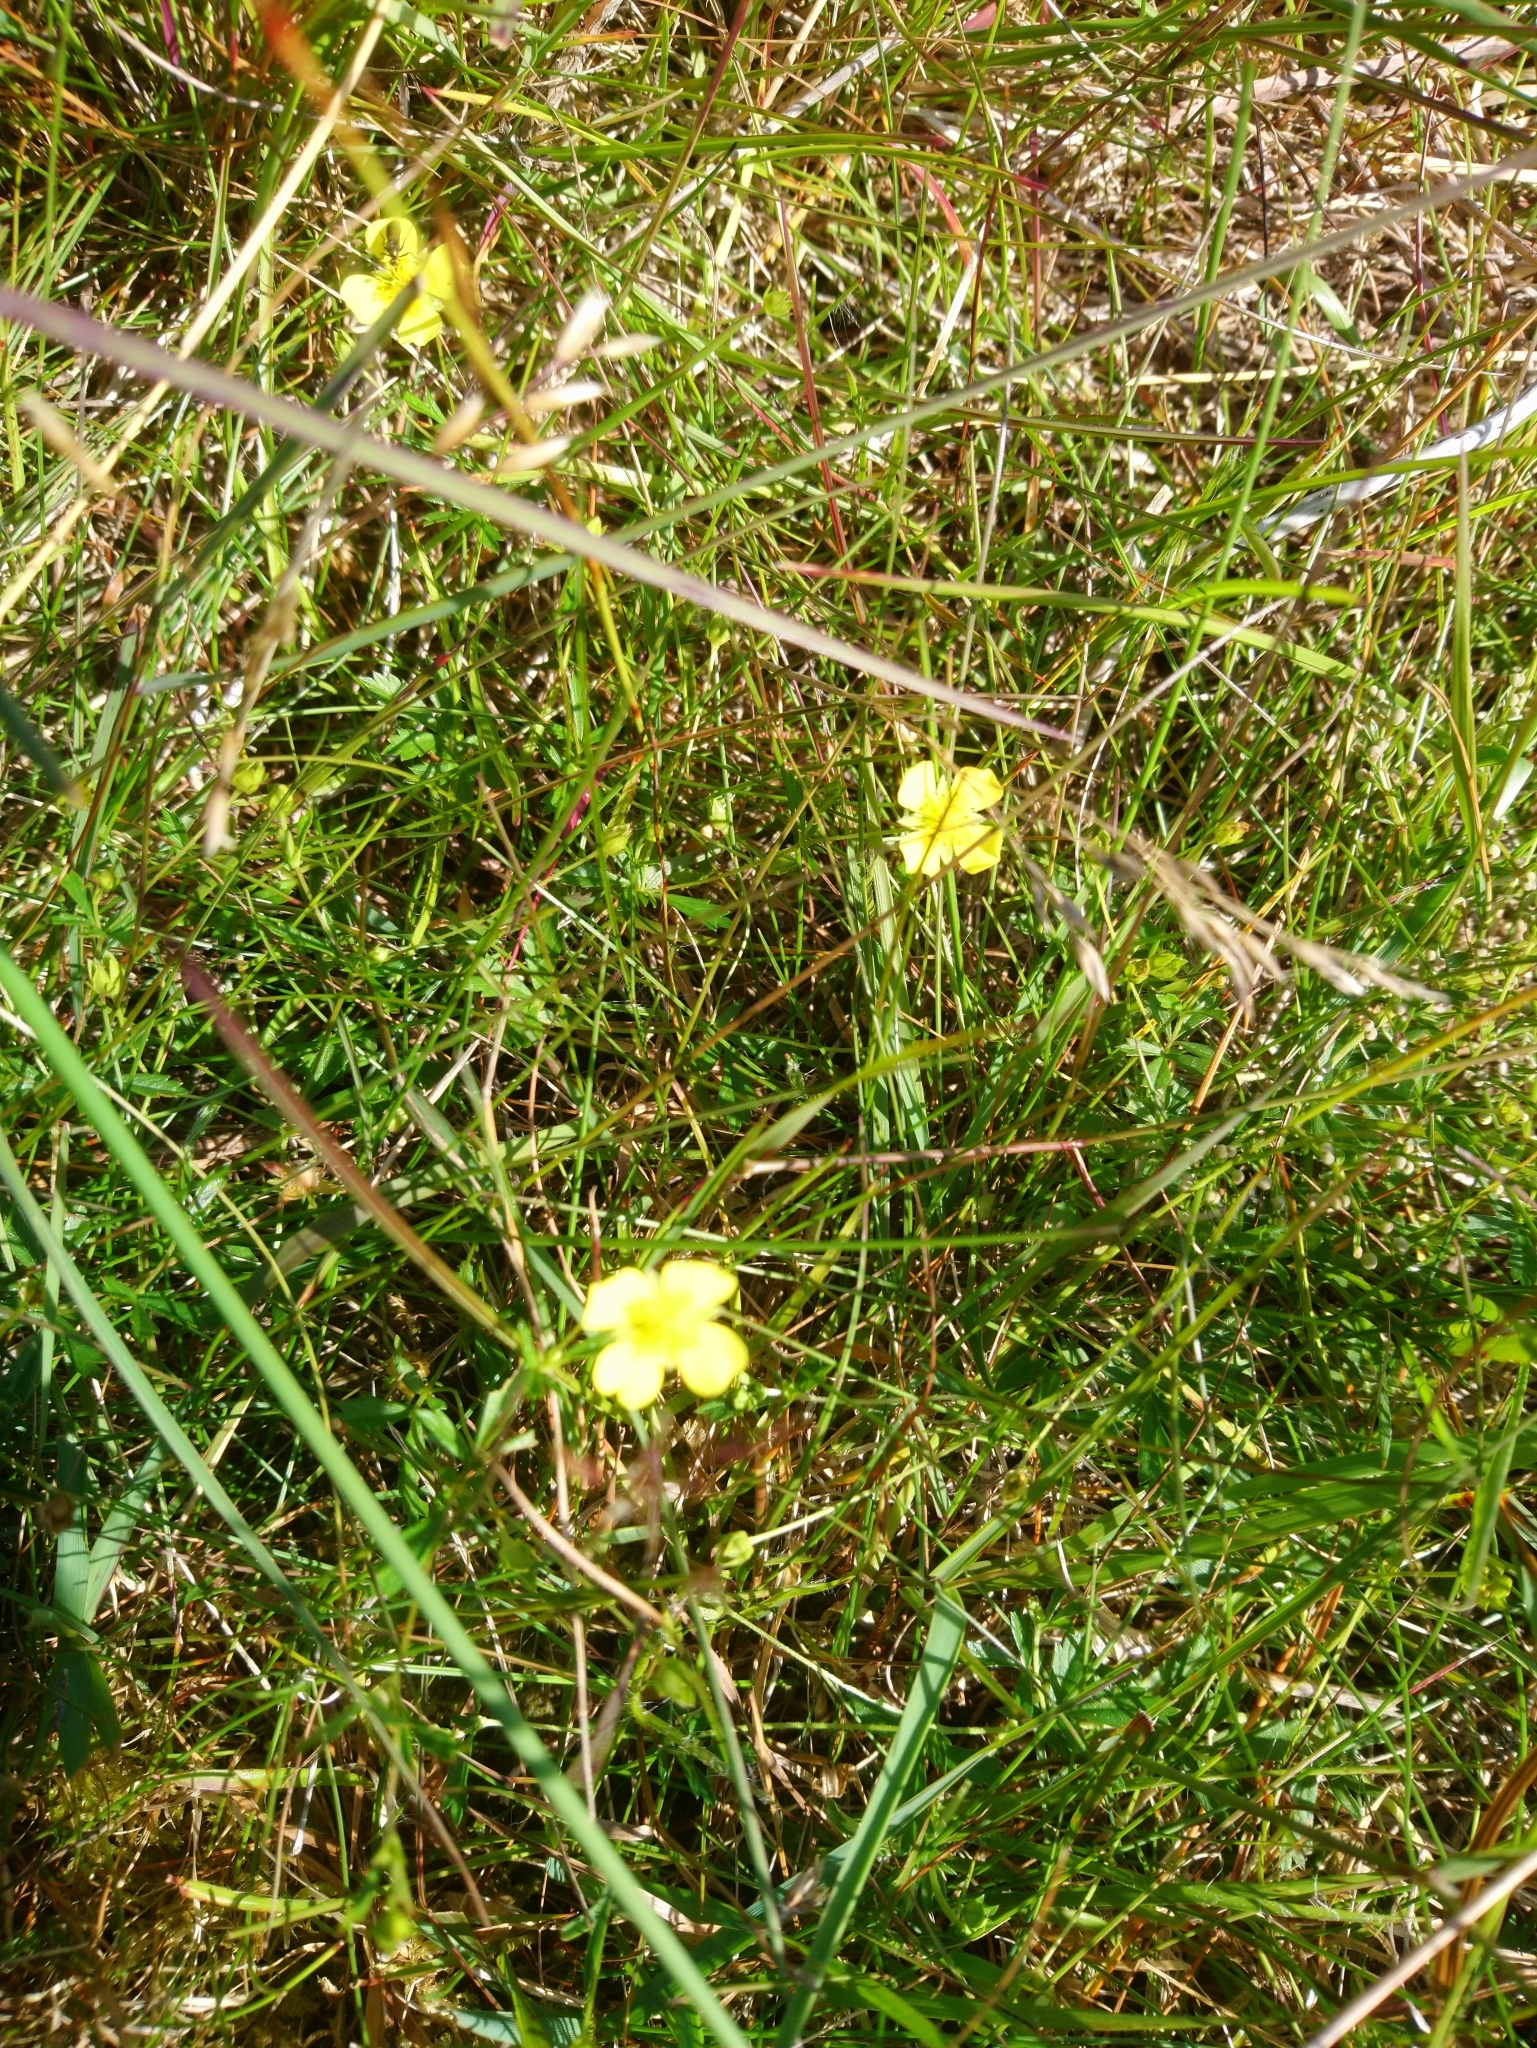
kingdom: Plantae
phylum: Tracheophyta
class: Magnoliopsida
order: Rosales
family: Rosaceae
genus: Potentilla
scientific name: Potentilla erecta
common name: Tormentil
